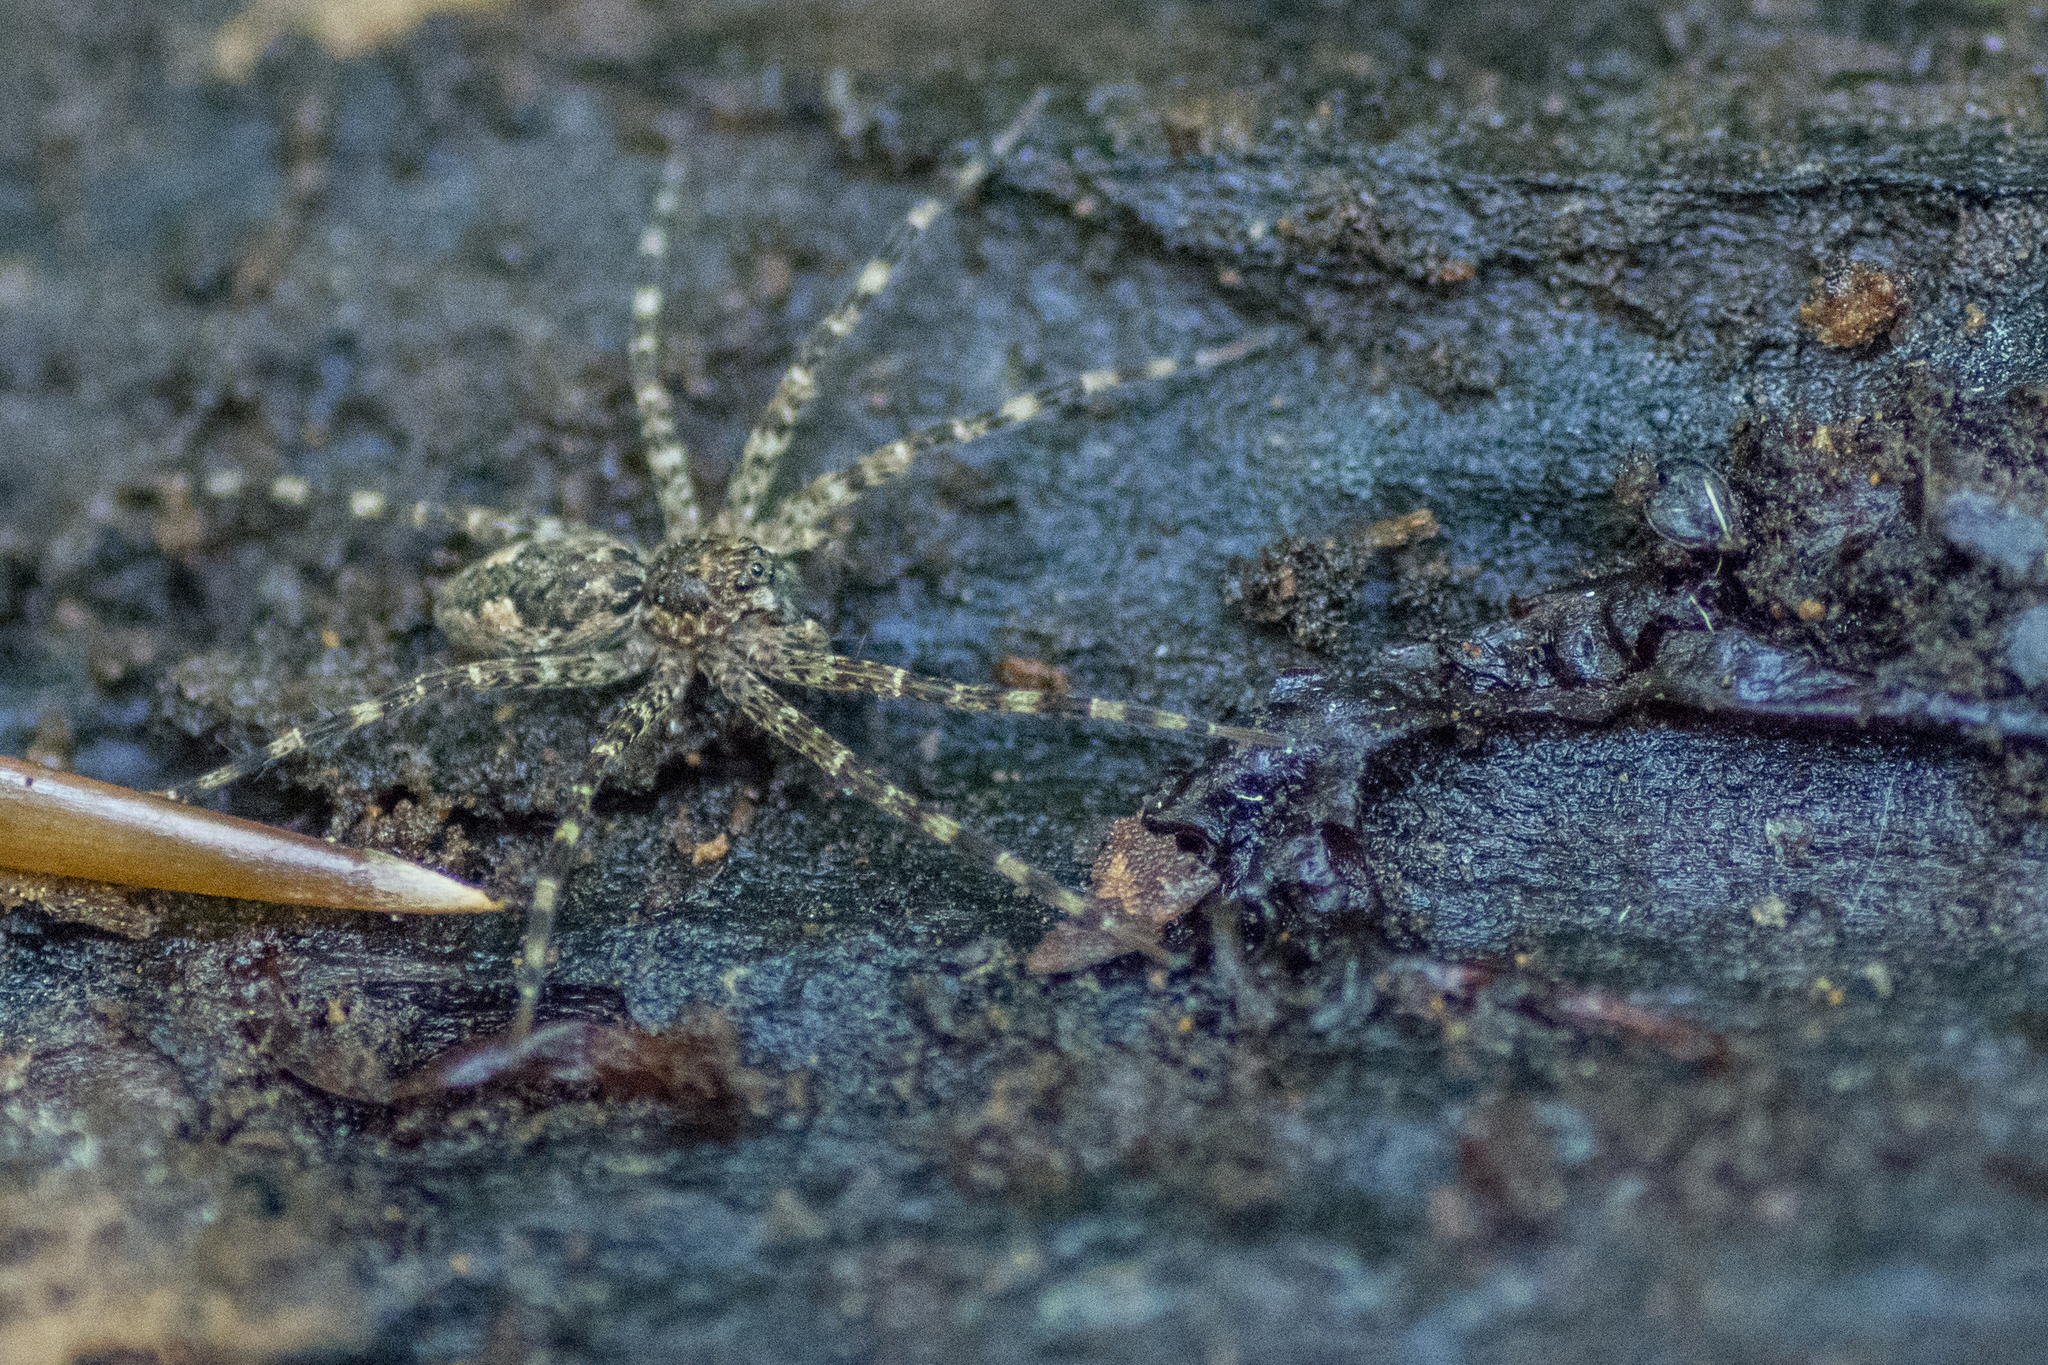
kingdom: Animalia
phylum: Arthropoda
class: Arachnida
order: Araneae
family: Pisauridae
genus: Dolomedes
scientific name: Dolomedes tenebrosus
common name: Dark fishing spider
